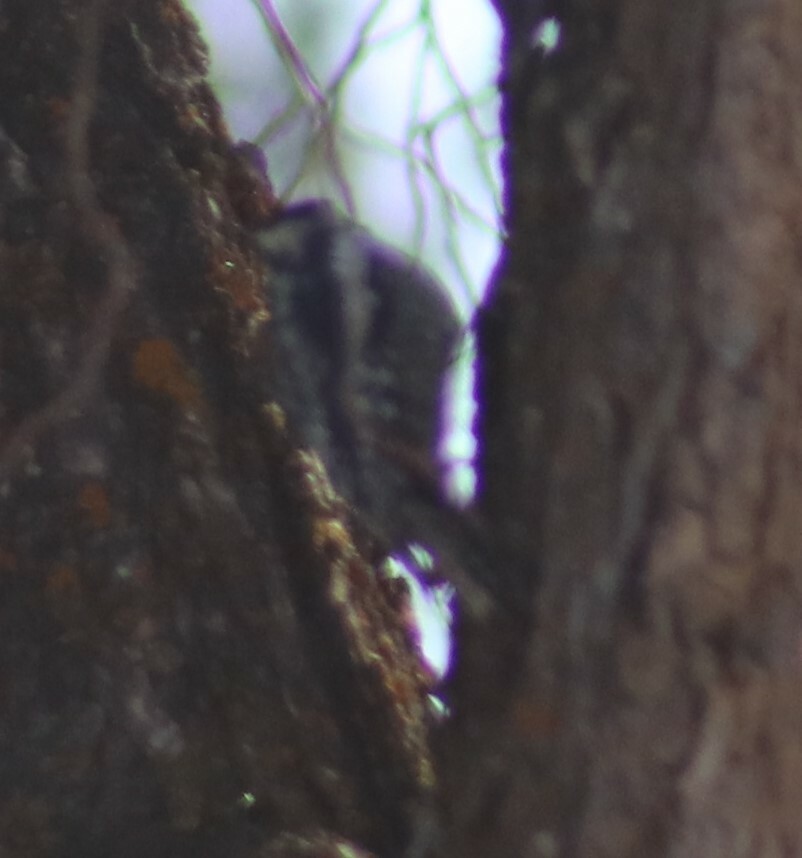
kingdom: Animalia
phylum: Chordata
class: Aves
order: Piciformes
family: Picidae
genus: Sphyrapicus
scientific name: Sphyrapicus varius
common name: Yellow-bellied sapsucker
